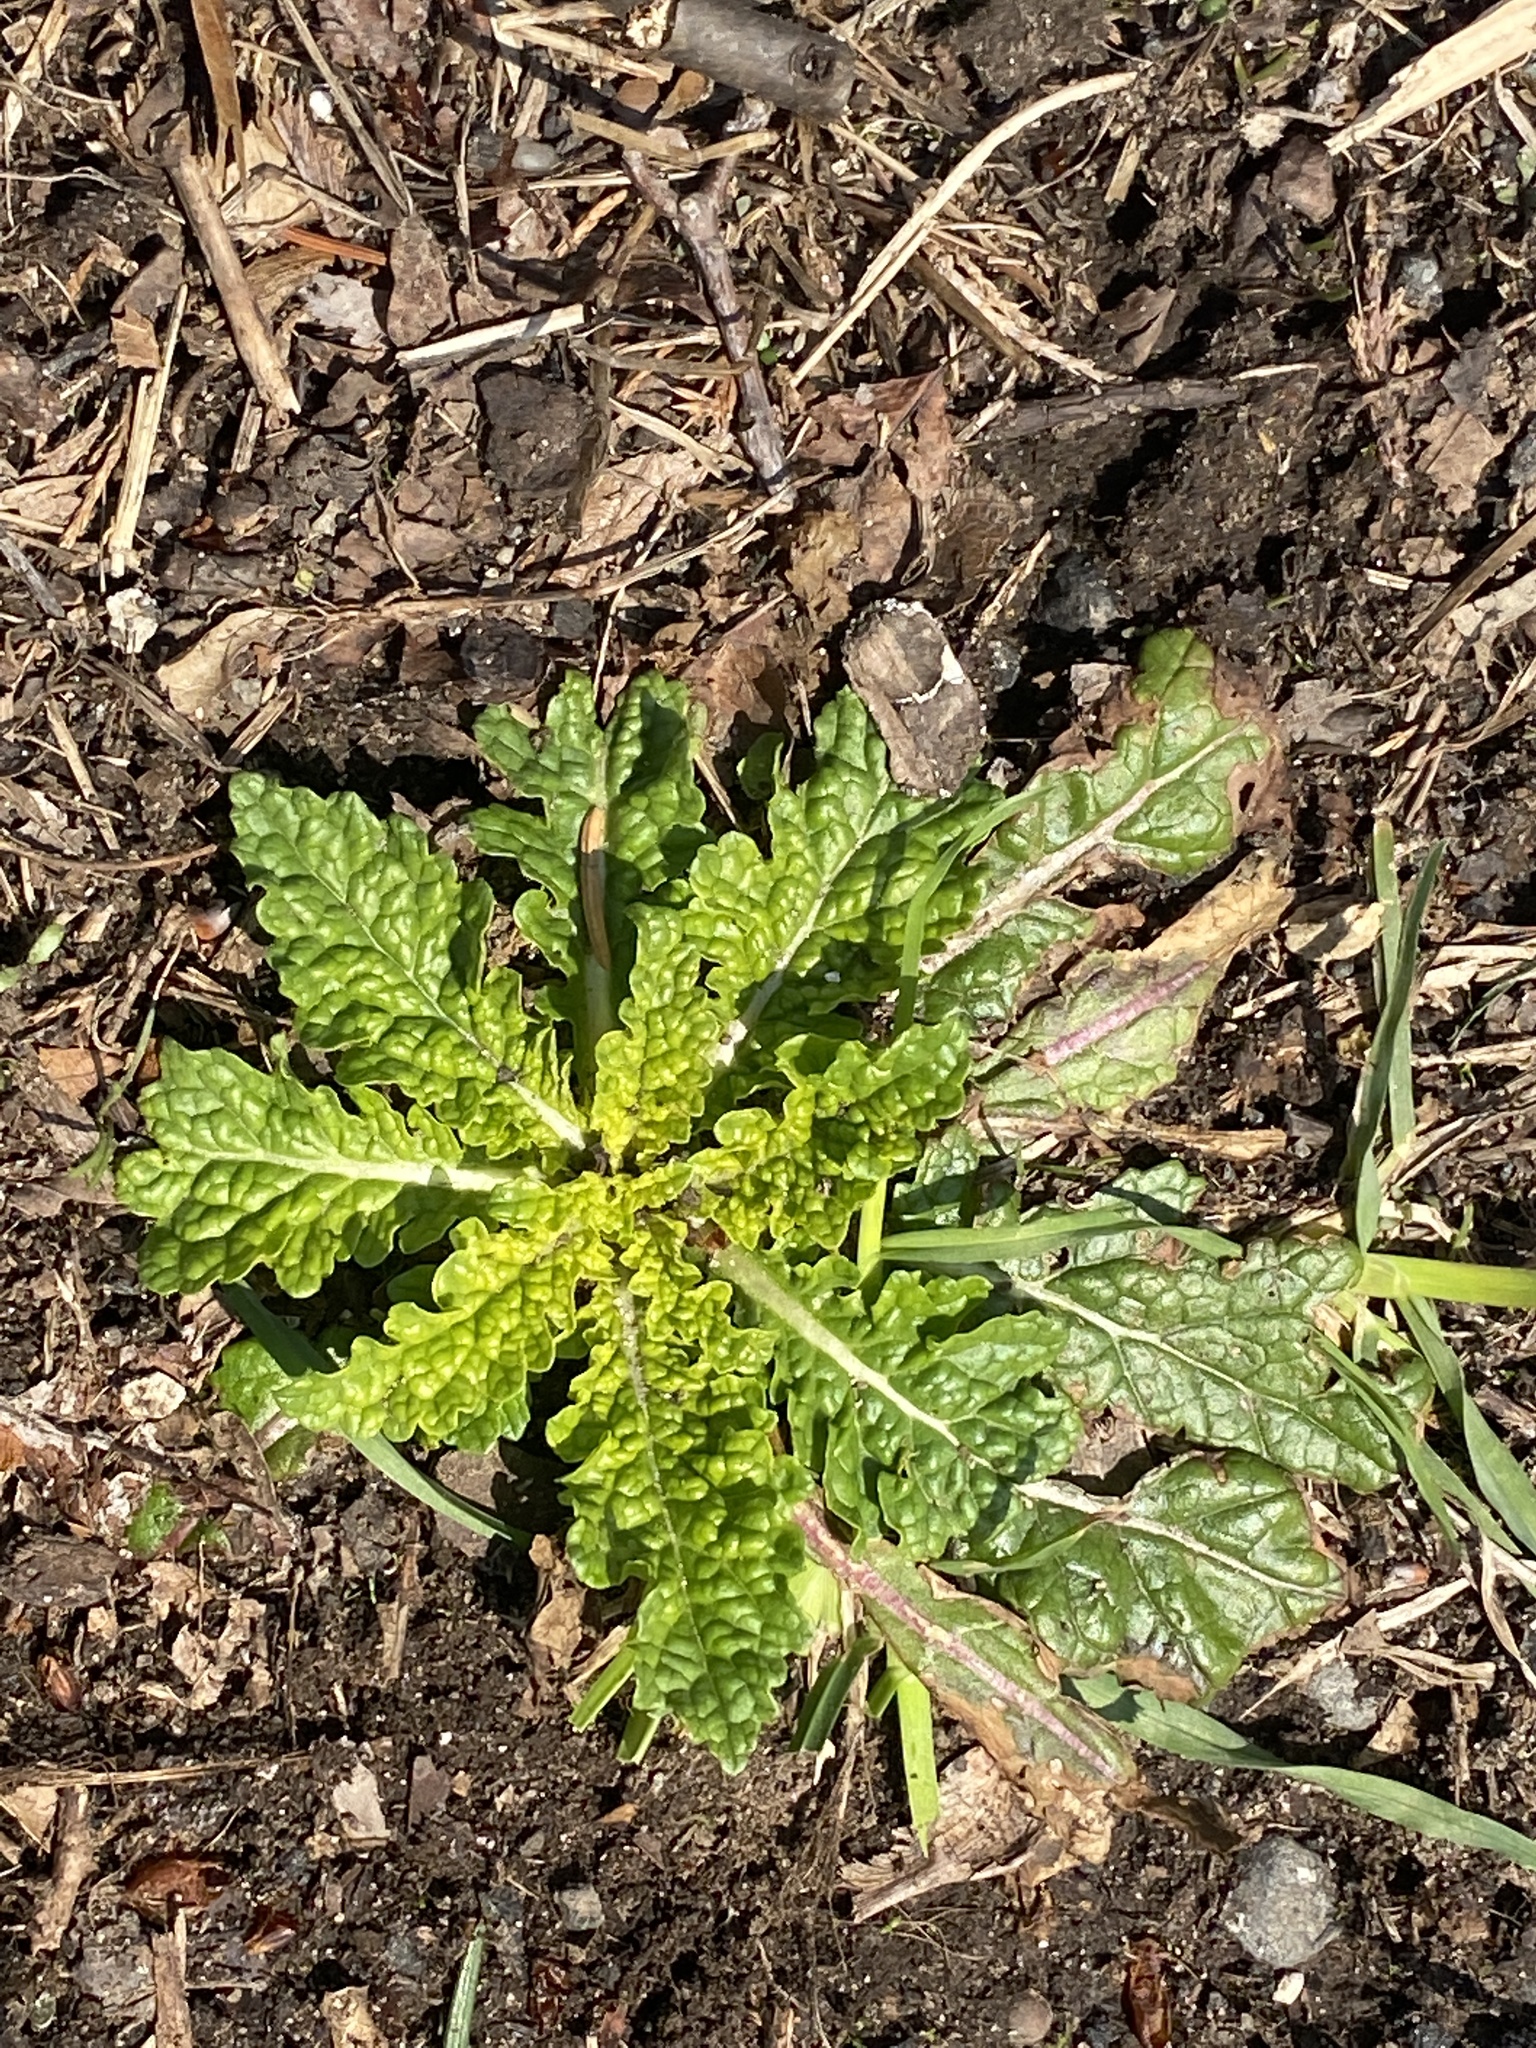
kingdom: Plantae
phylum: Tracheophyta
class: Magnoliopsida
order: Lamiales
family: Scrophulariaceae
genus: Verbascum
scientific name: Verbascum blattaria
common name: Moth mullein
